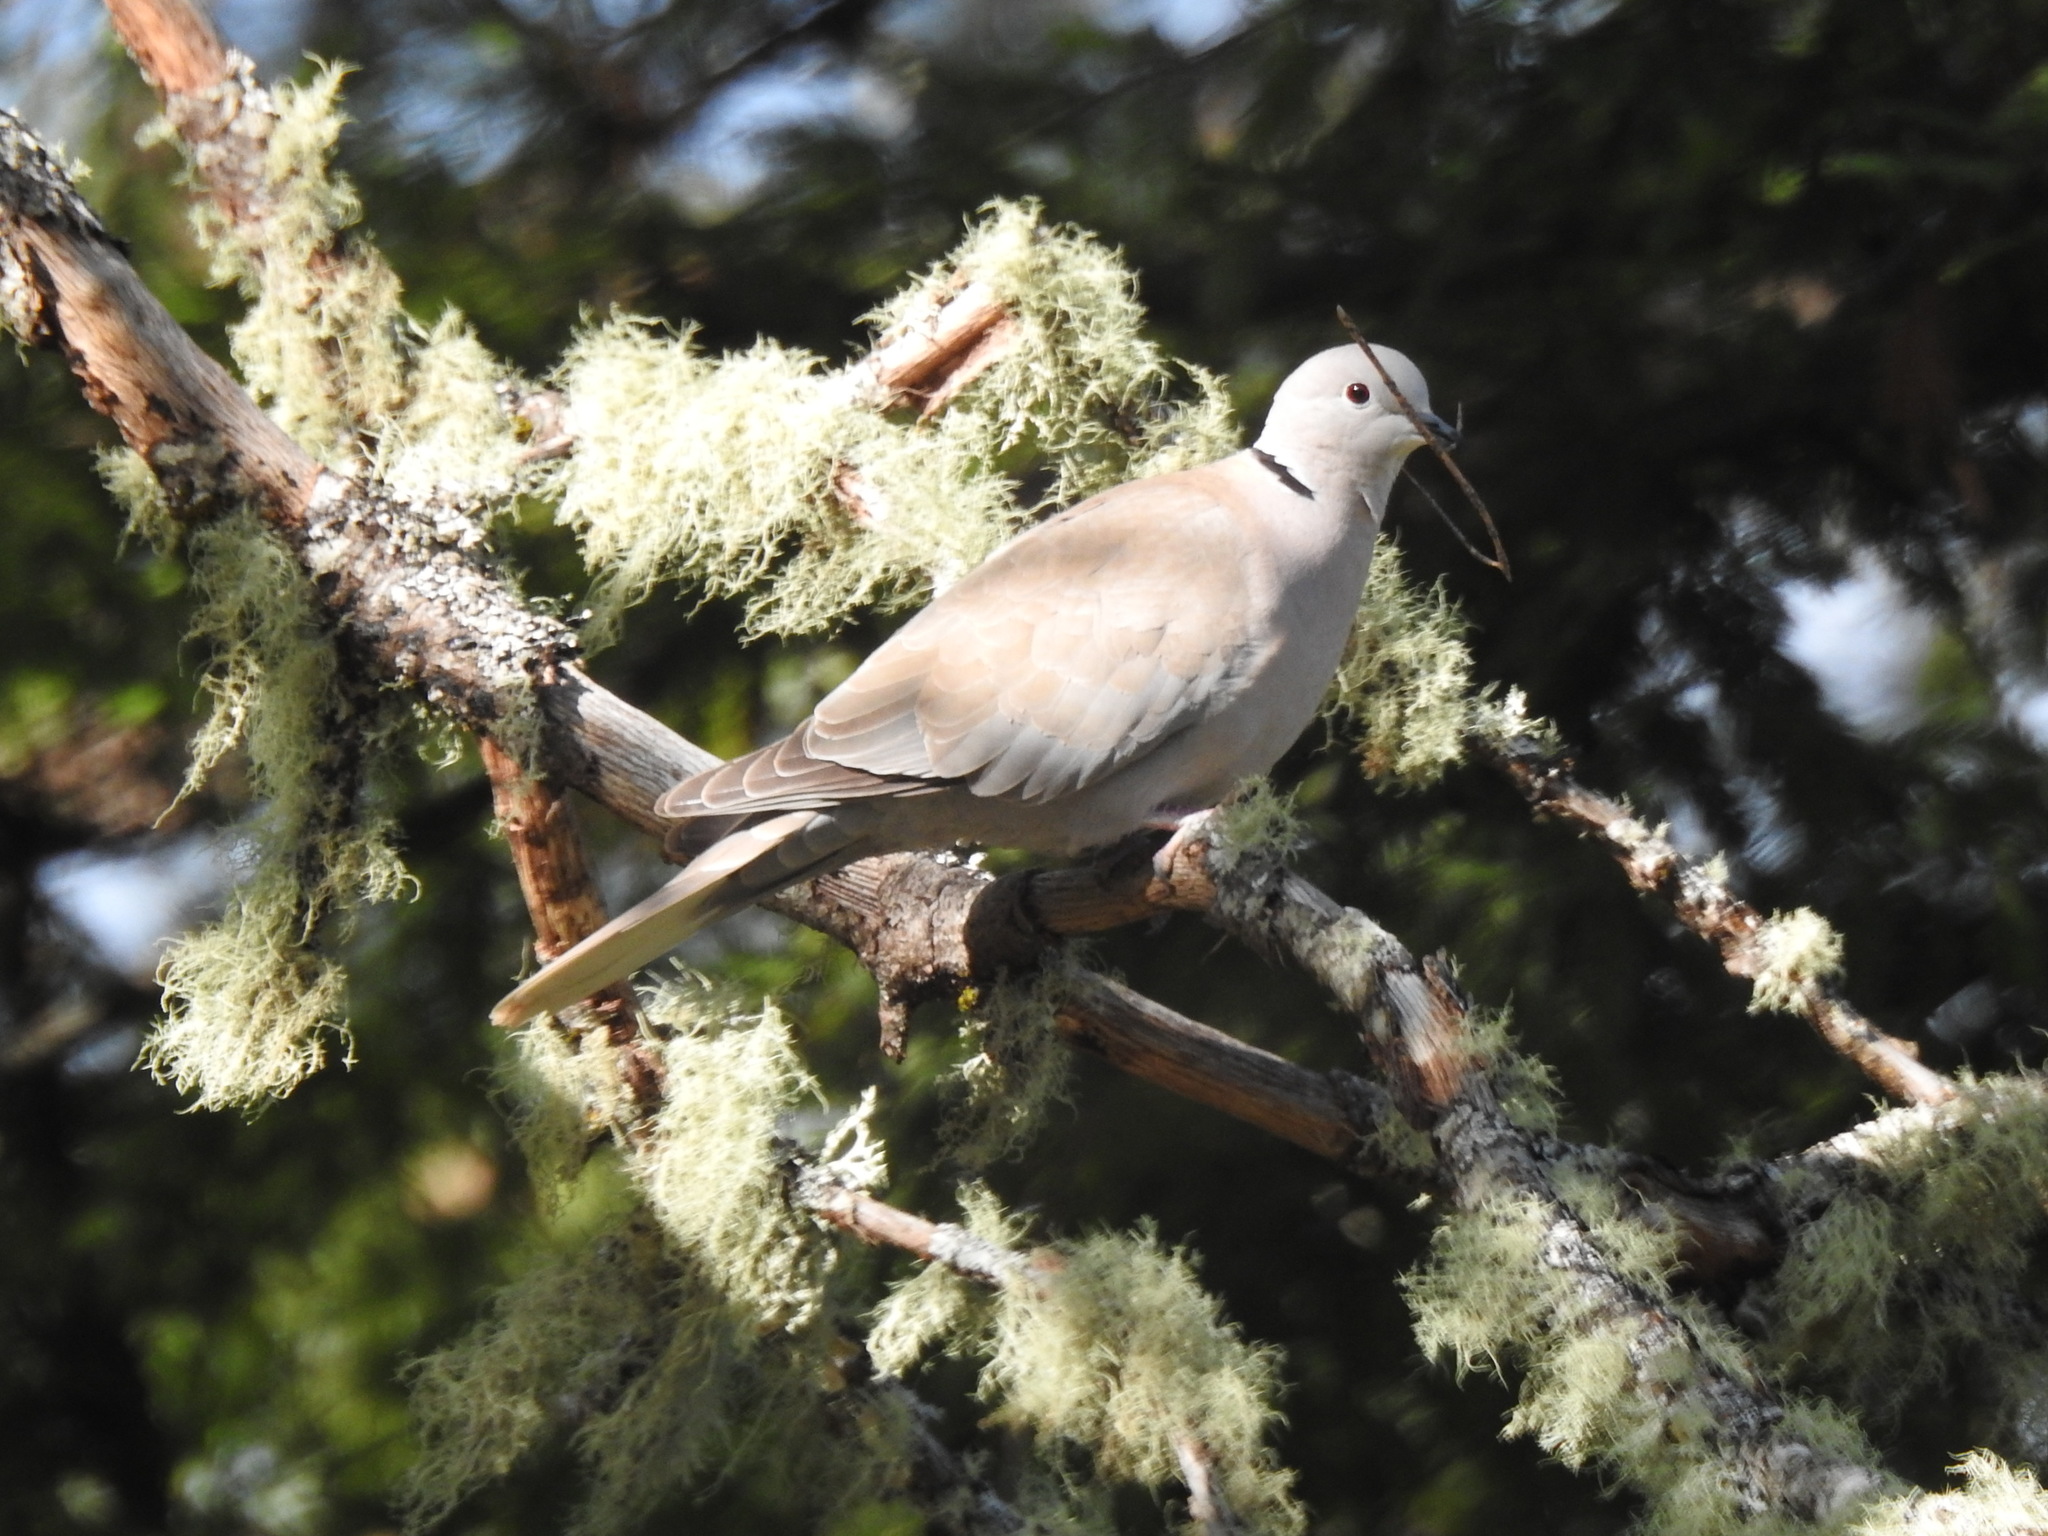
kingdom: Animalia
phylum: Chordata
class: Aves
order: Columbiformes
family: Columbidae
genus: Streptopelia
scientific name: Streptopelia decaocto
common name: Eurasian collared dove
